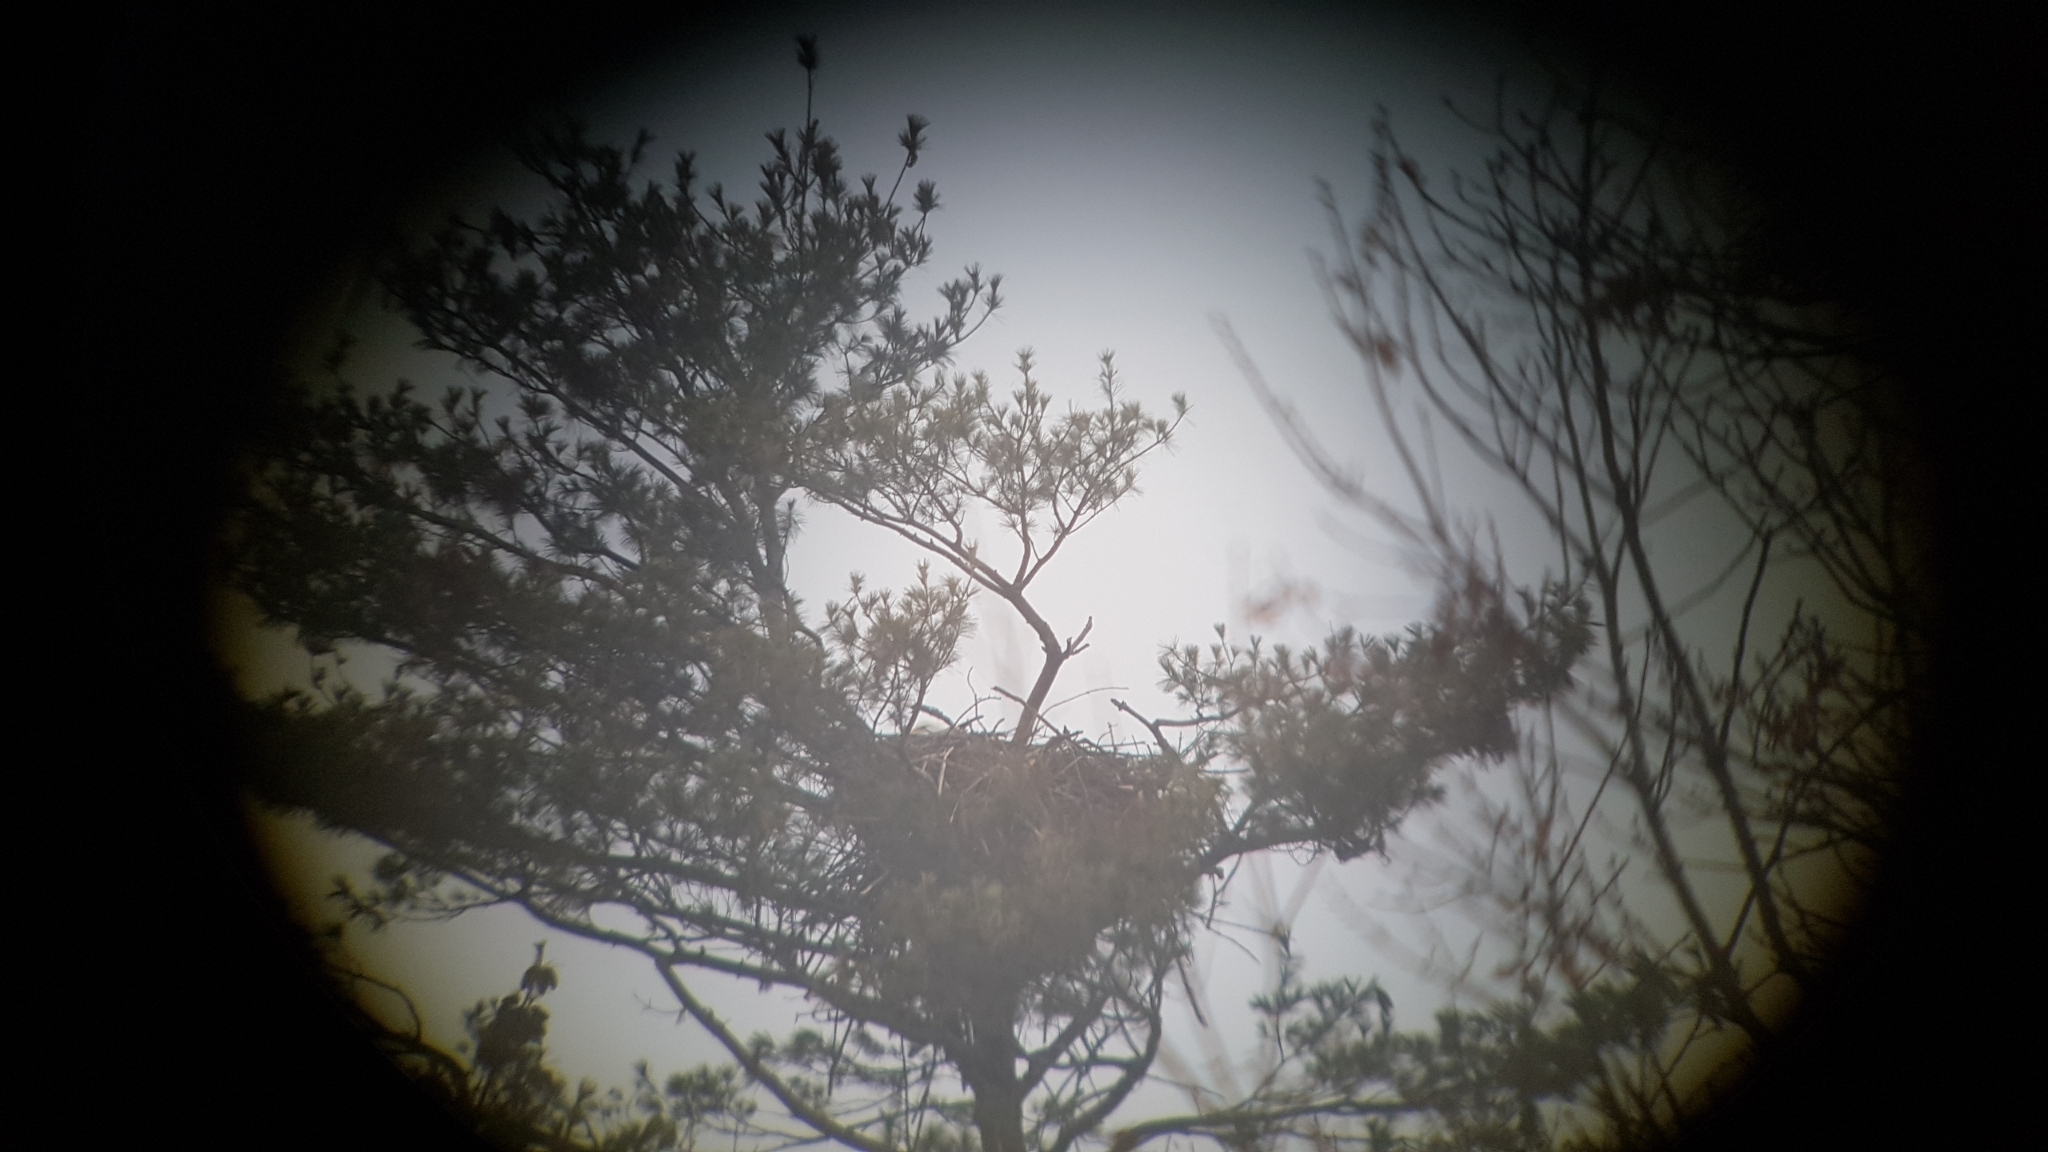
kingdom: Animalia
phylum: Chordata
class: Aves
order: Accipitriformes
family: Accipitridae
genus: Haliaeetus
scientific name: Haliaeetus leucocephalus
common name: Bald eagle
